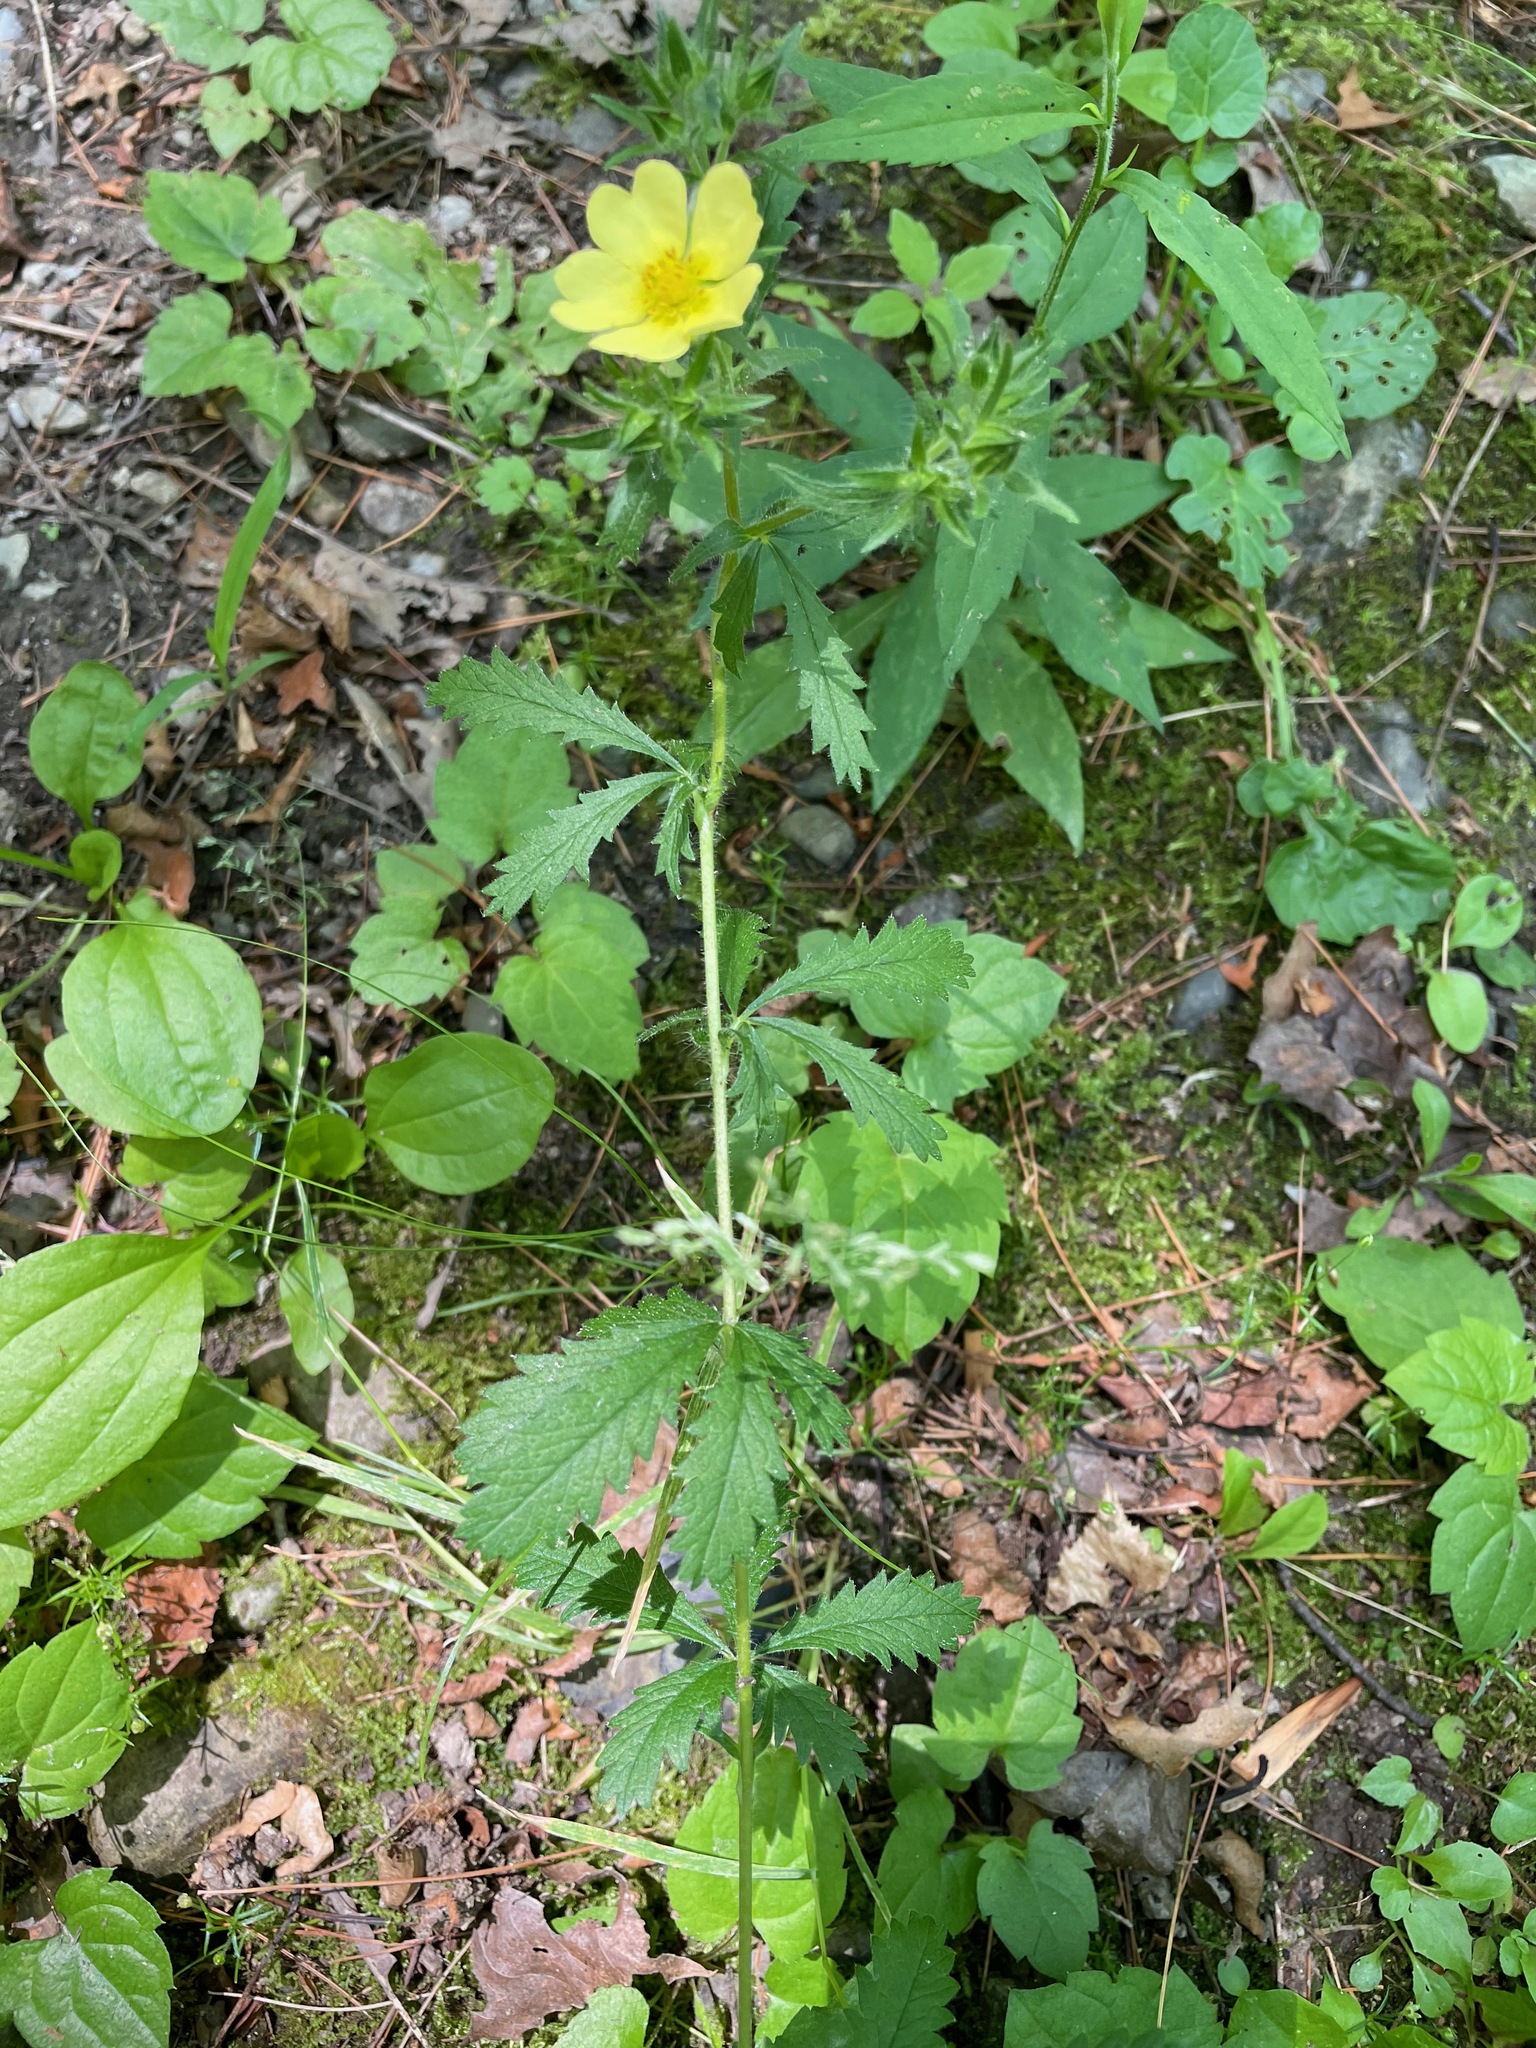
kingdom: Plantae
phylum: Tracheophyta
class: Magnoliopsida
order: Rosales
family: Rosaceae
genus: Potentilla
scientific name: Potentilla recta
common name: Sulphur cinquefoil
